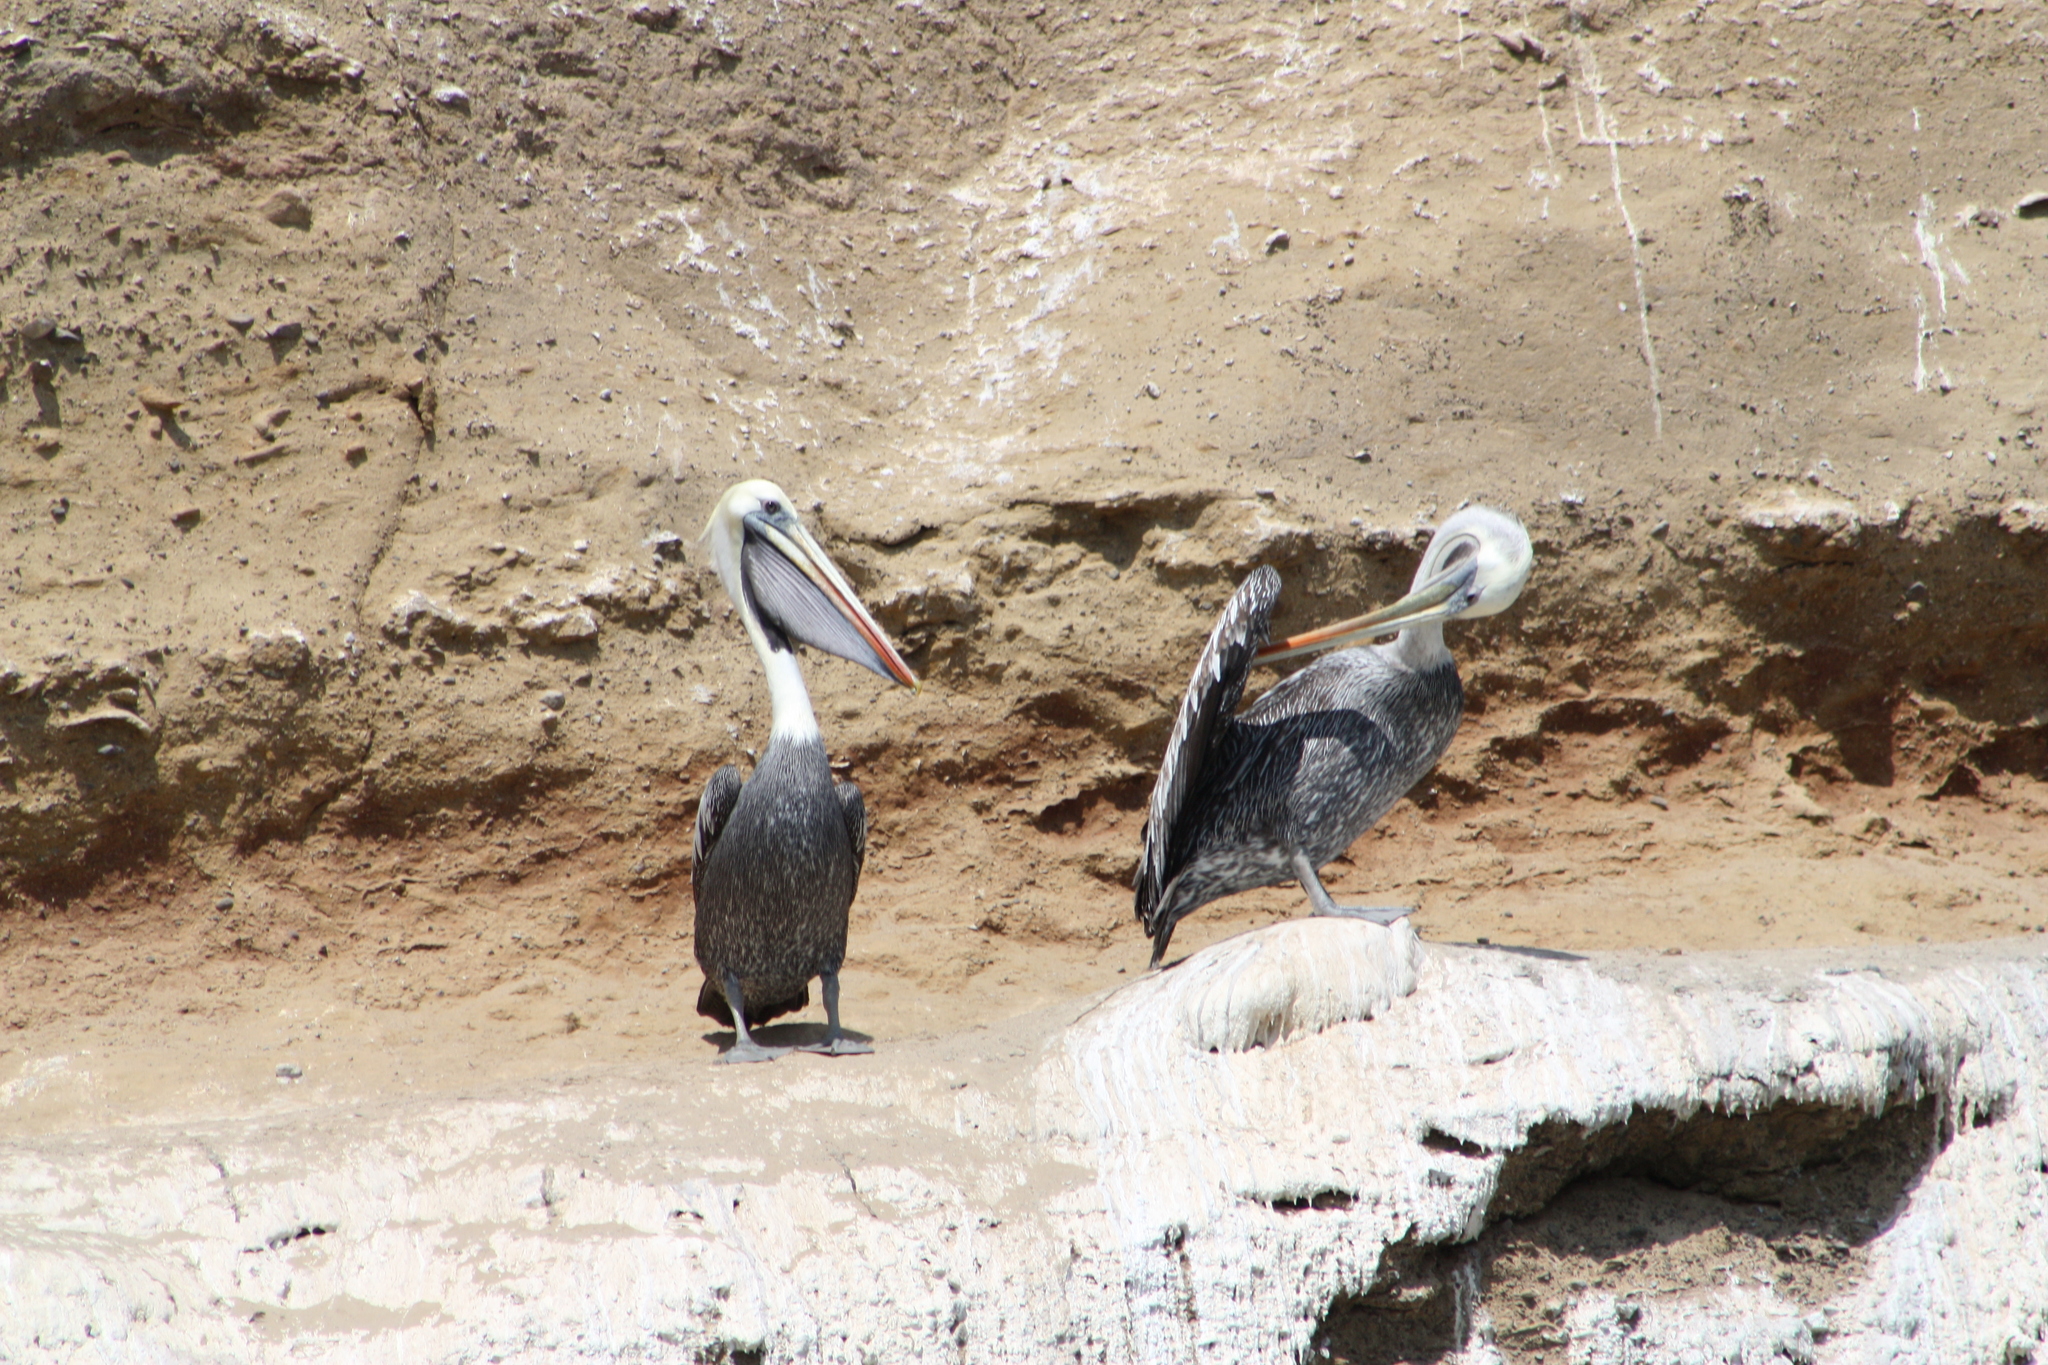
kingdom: Animalia
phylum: Chordata
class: Aves
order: Pelecaniformes
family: Pelecanidae
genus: Pelecanus
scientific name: Pelecanus thagus
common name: Peruvian pelican
